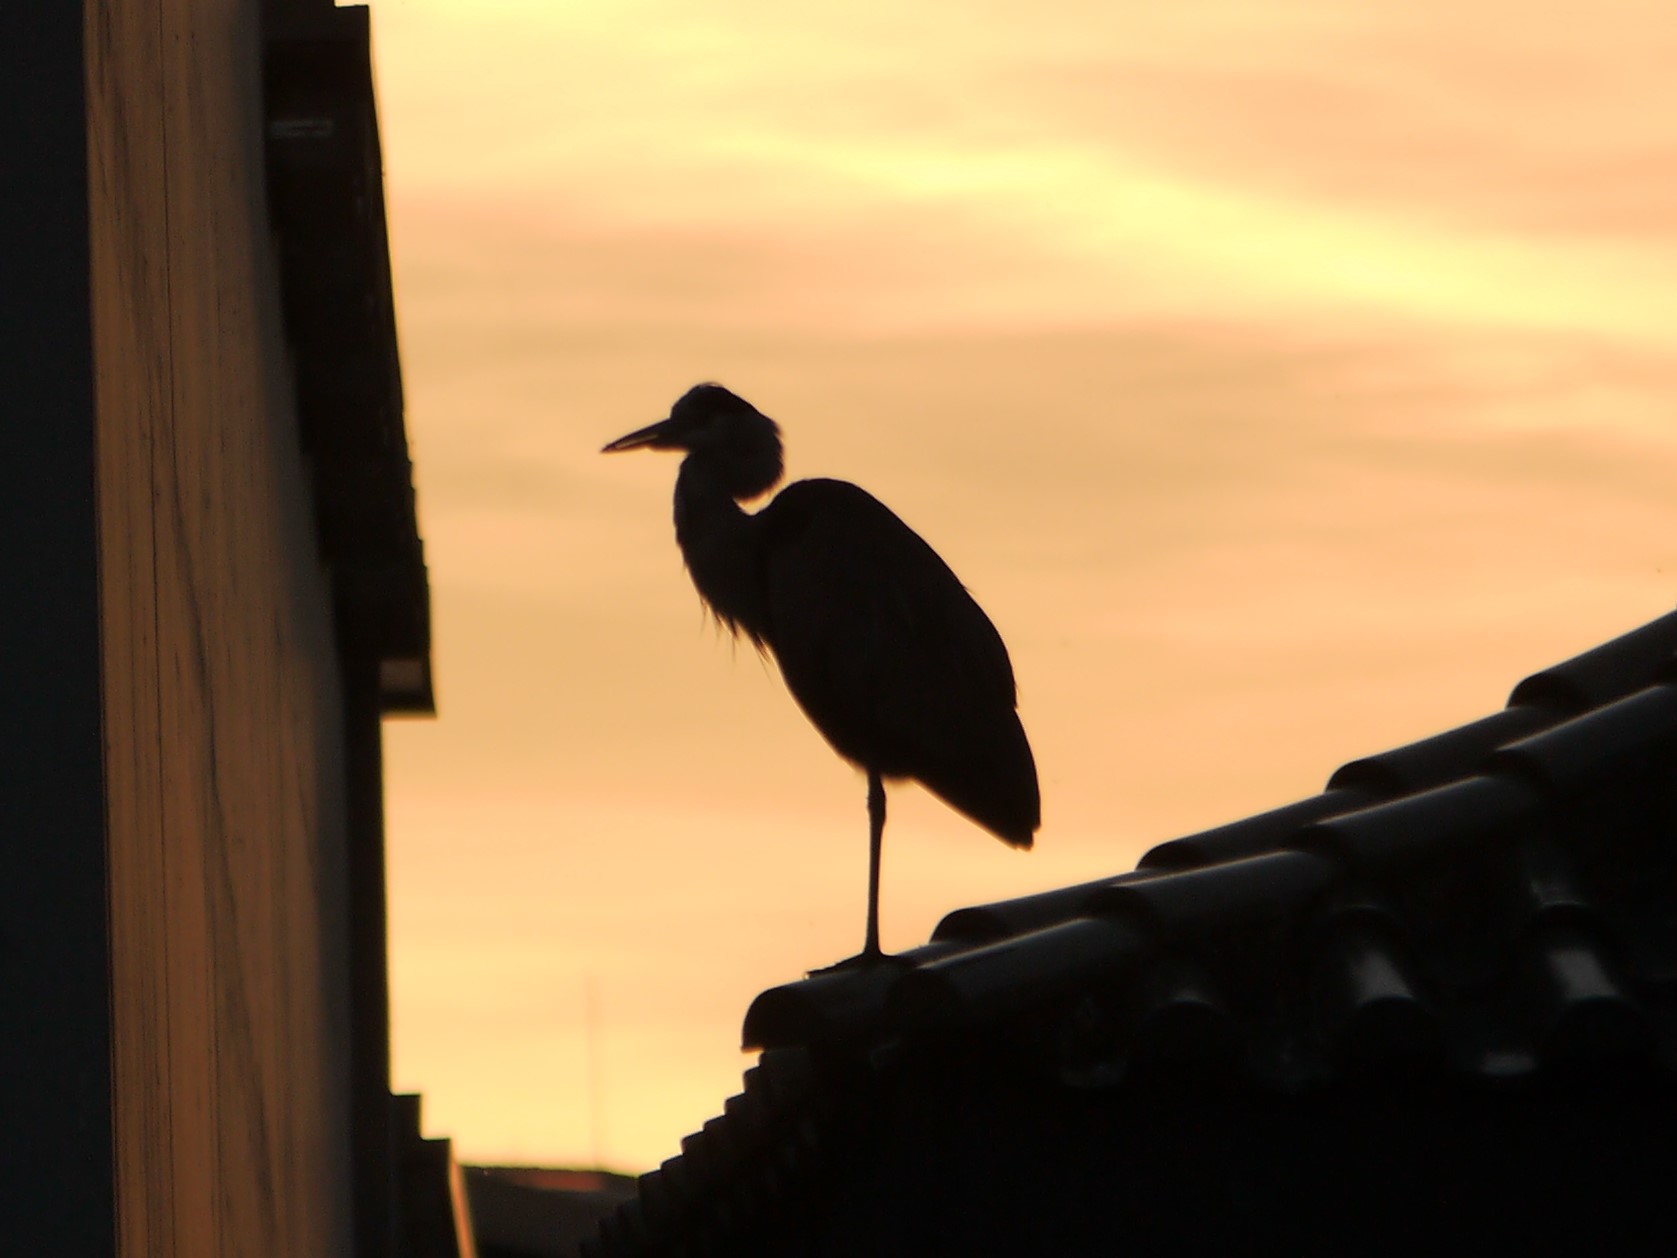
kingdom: Animalia
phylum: Chordata
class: Aves
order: Pelecaniformes
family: Ardeidae
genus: Ardea
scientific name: Ardea cinerea
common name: Grey heron
